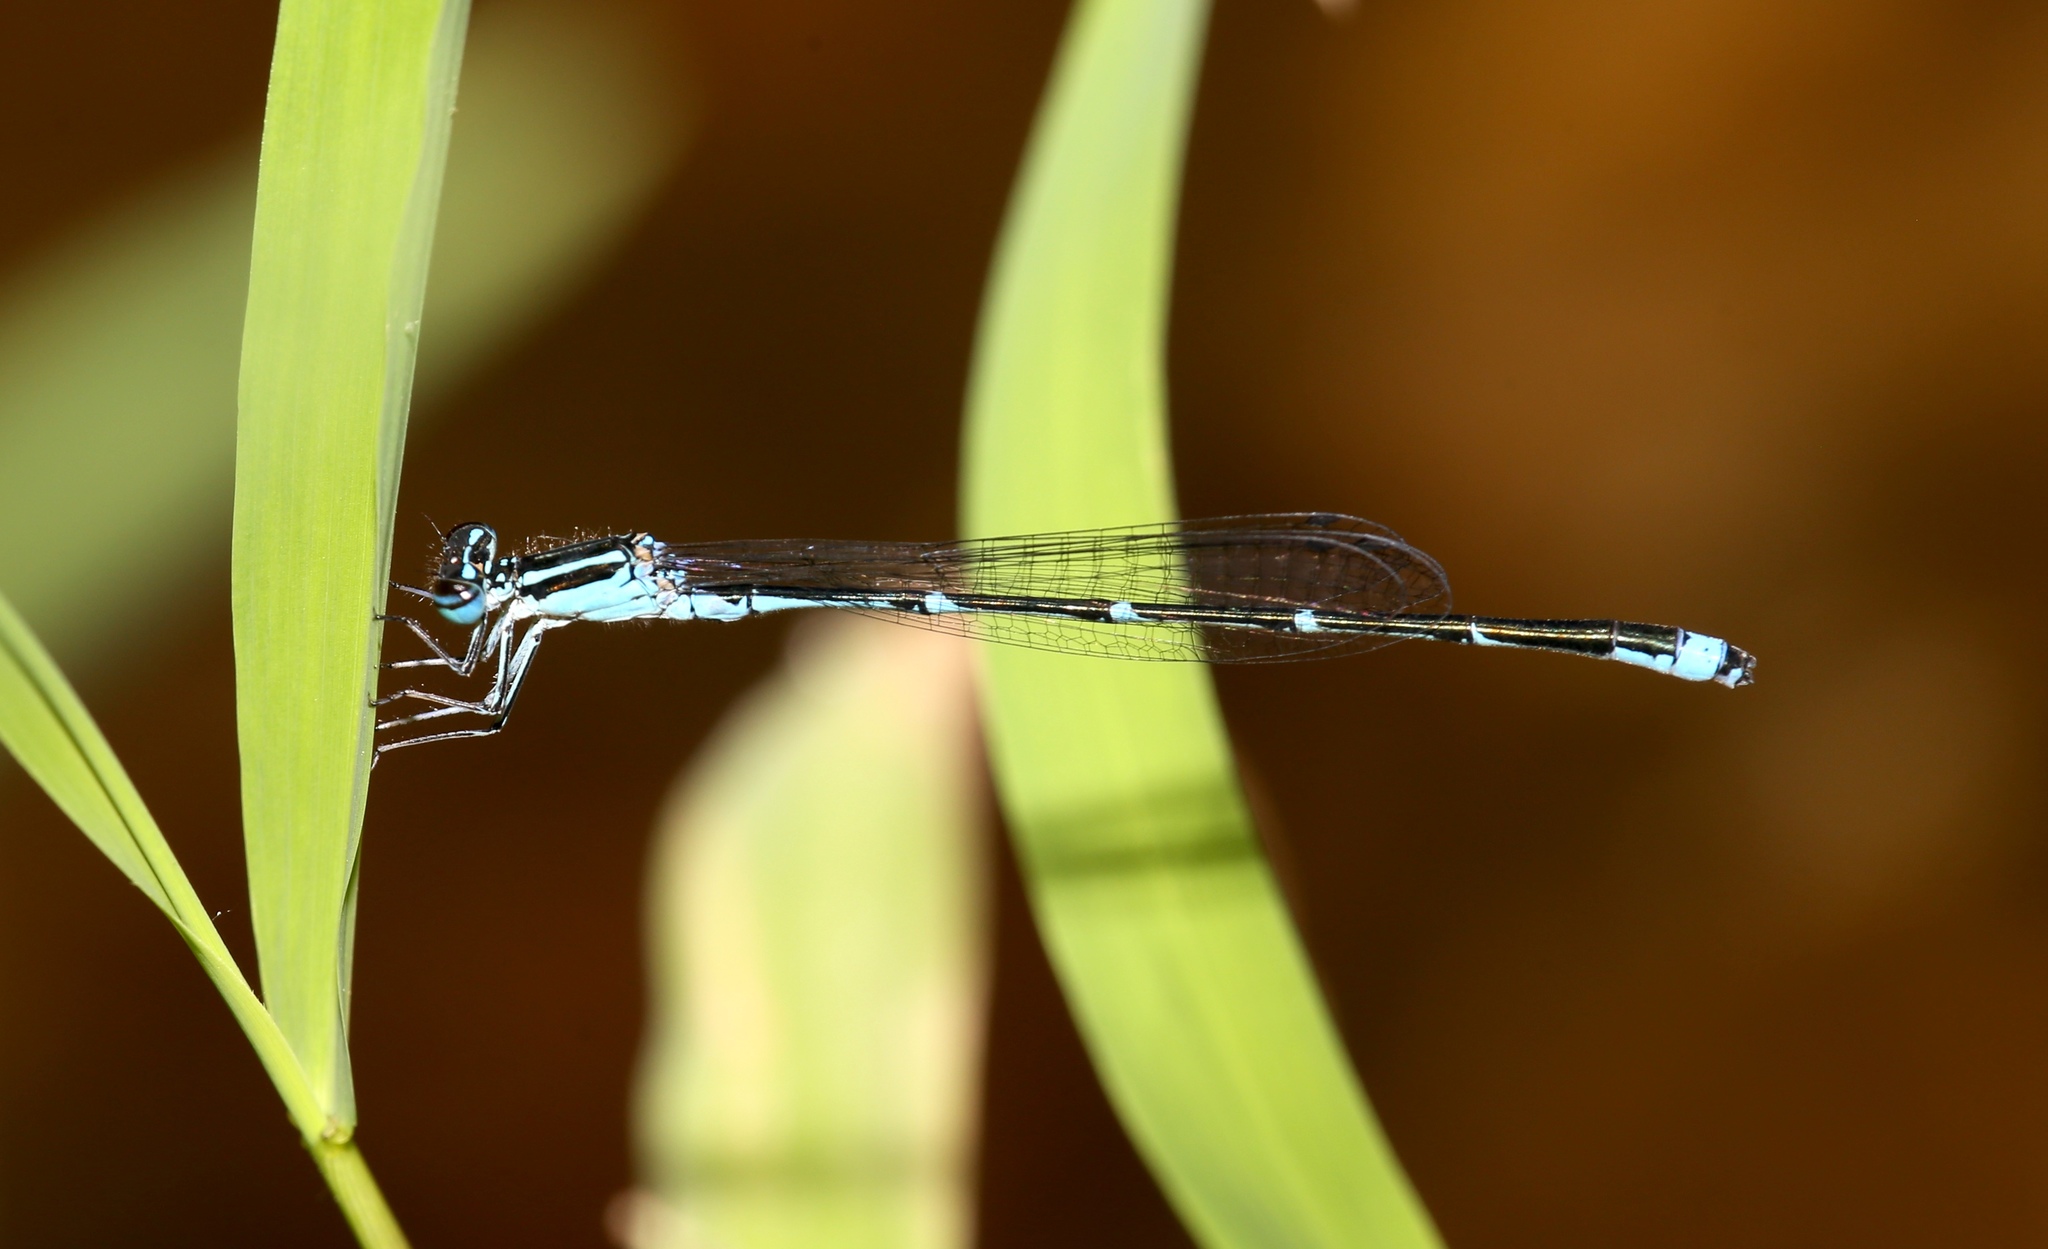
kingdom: Animalia
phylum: Arthropoda
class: Insecta
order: Odonata
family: Coenagrionidae
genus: Enallagma
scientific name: Enallagma exsulans
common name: Stream bluet
